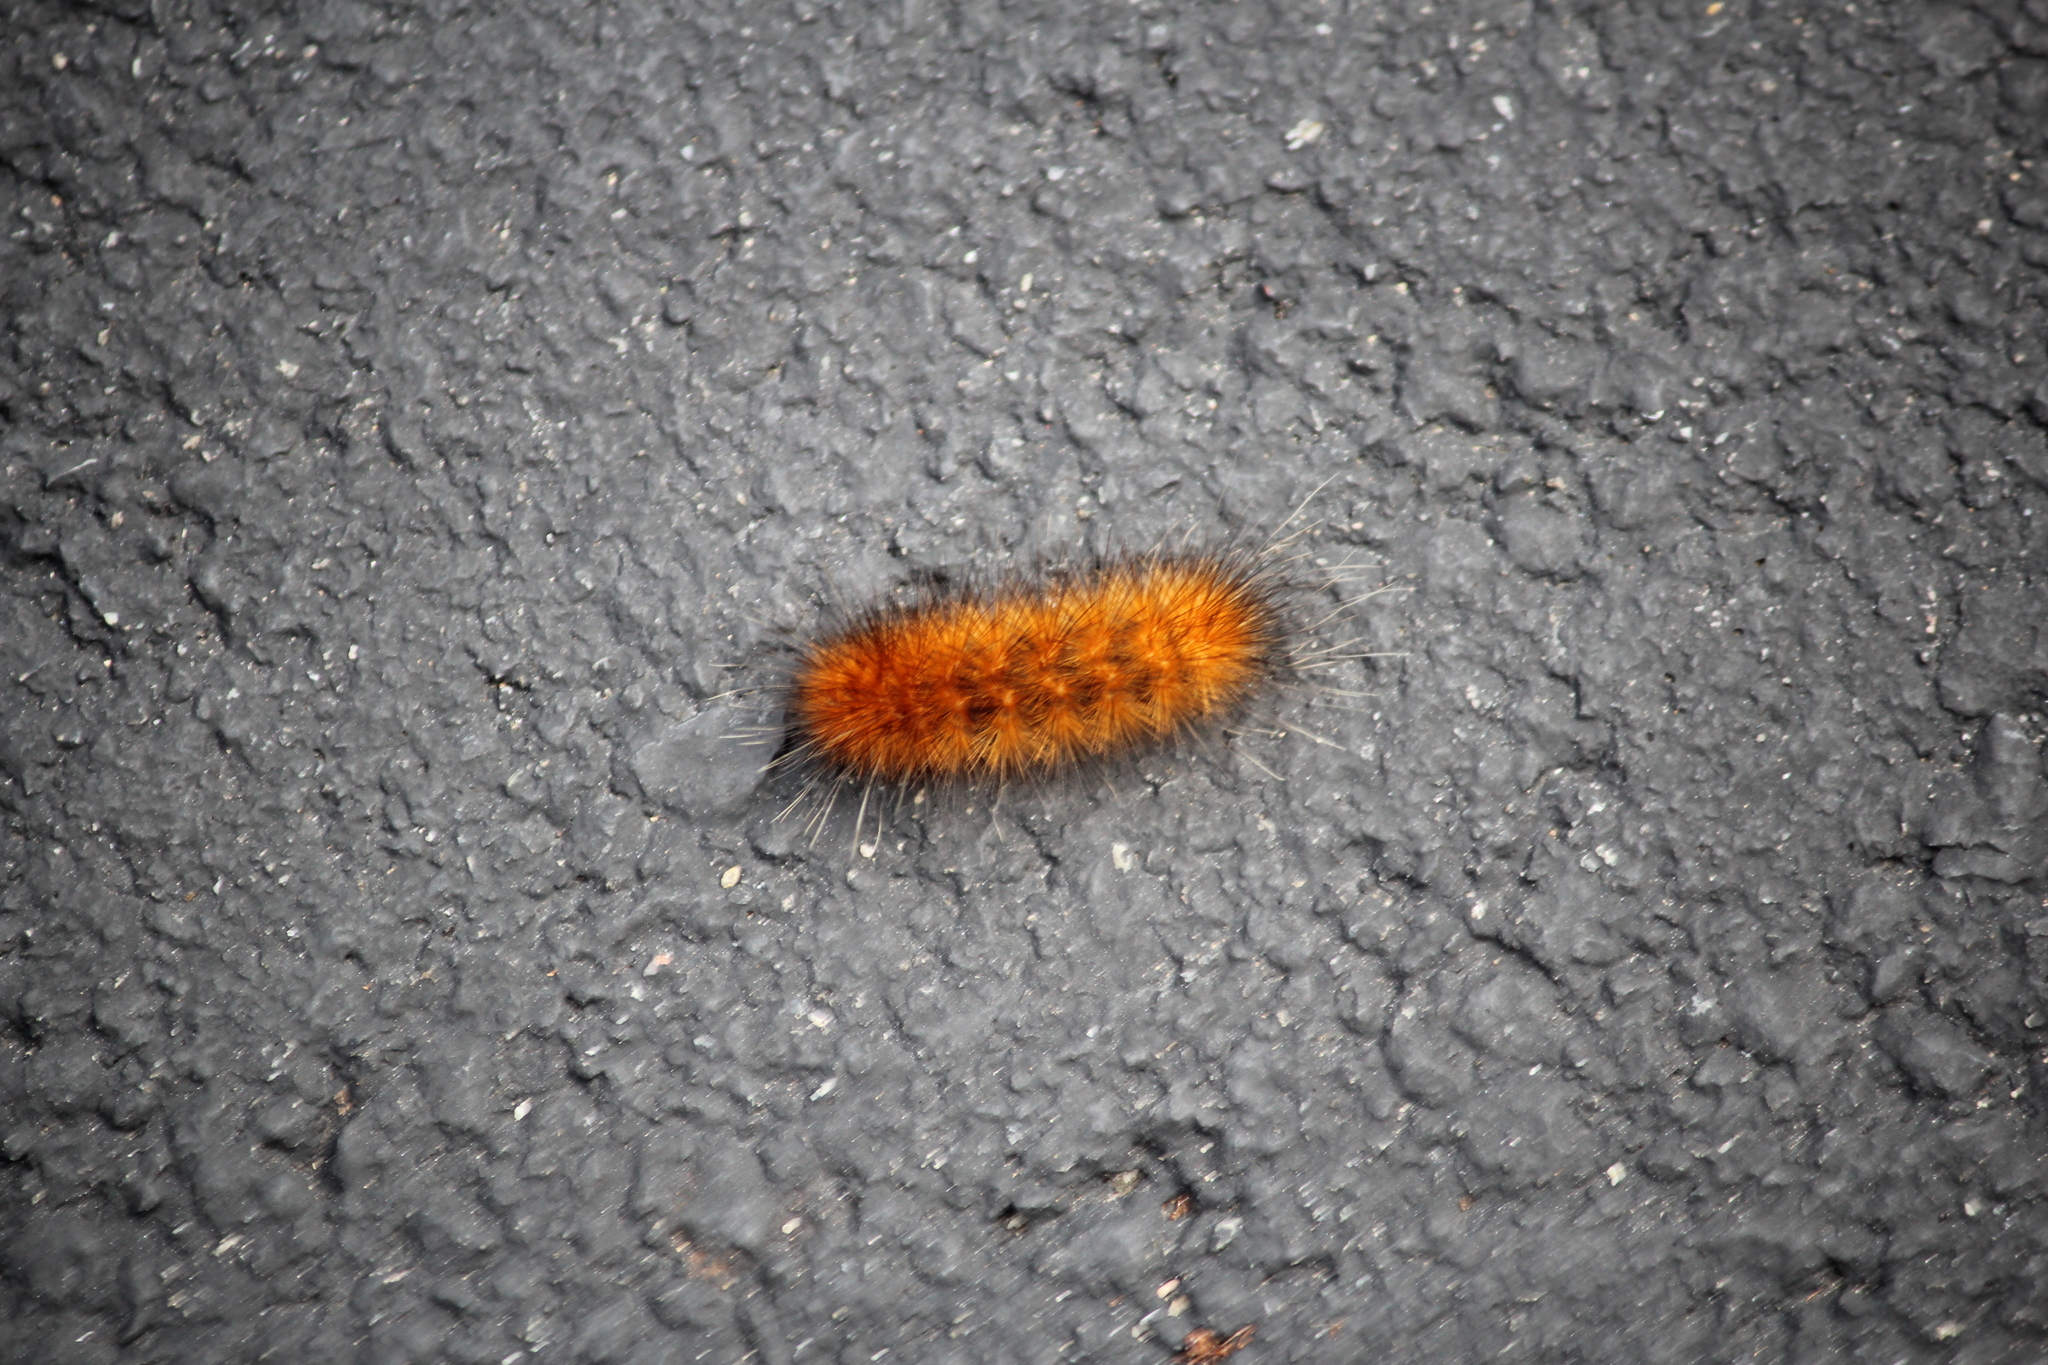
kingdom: Animalia
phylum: Arthropoda
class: Insecta
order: Lepidoptera
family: Erebidae
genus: Spilosoma
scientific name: Spilosoma virginica
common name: Virginia tiger moth
